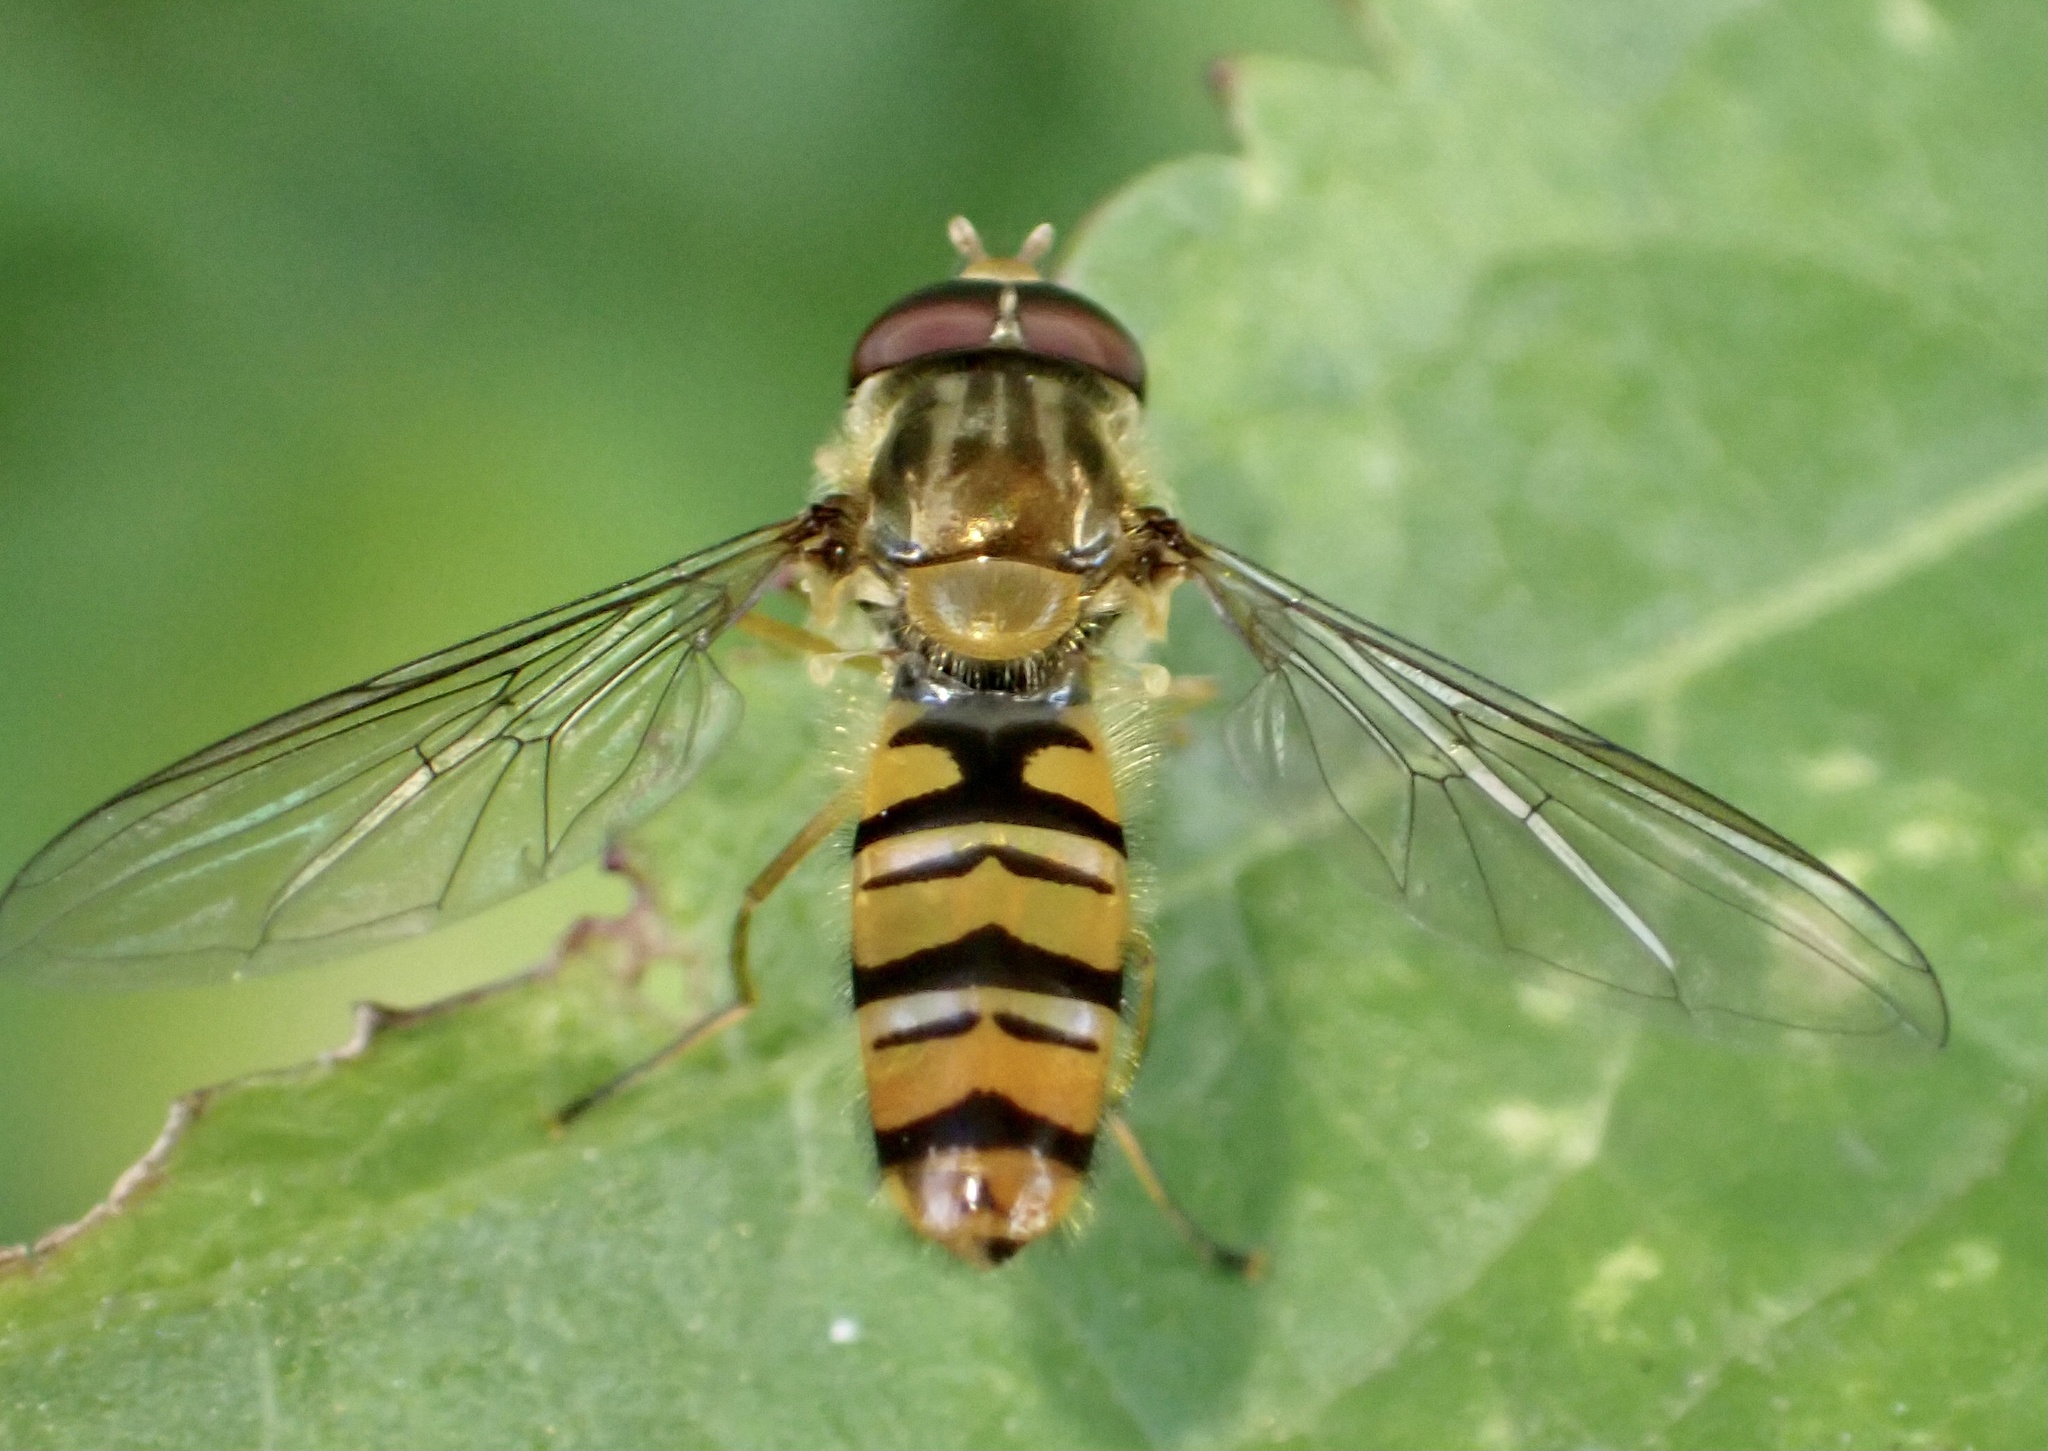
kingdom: Animalia
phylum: Arthropoda
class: Insecta
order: Diptera
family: Syrphidae
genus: Episyrphus
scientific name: Episyrphus balteatus
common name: Marmalade hoverfly
